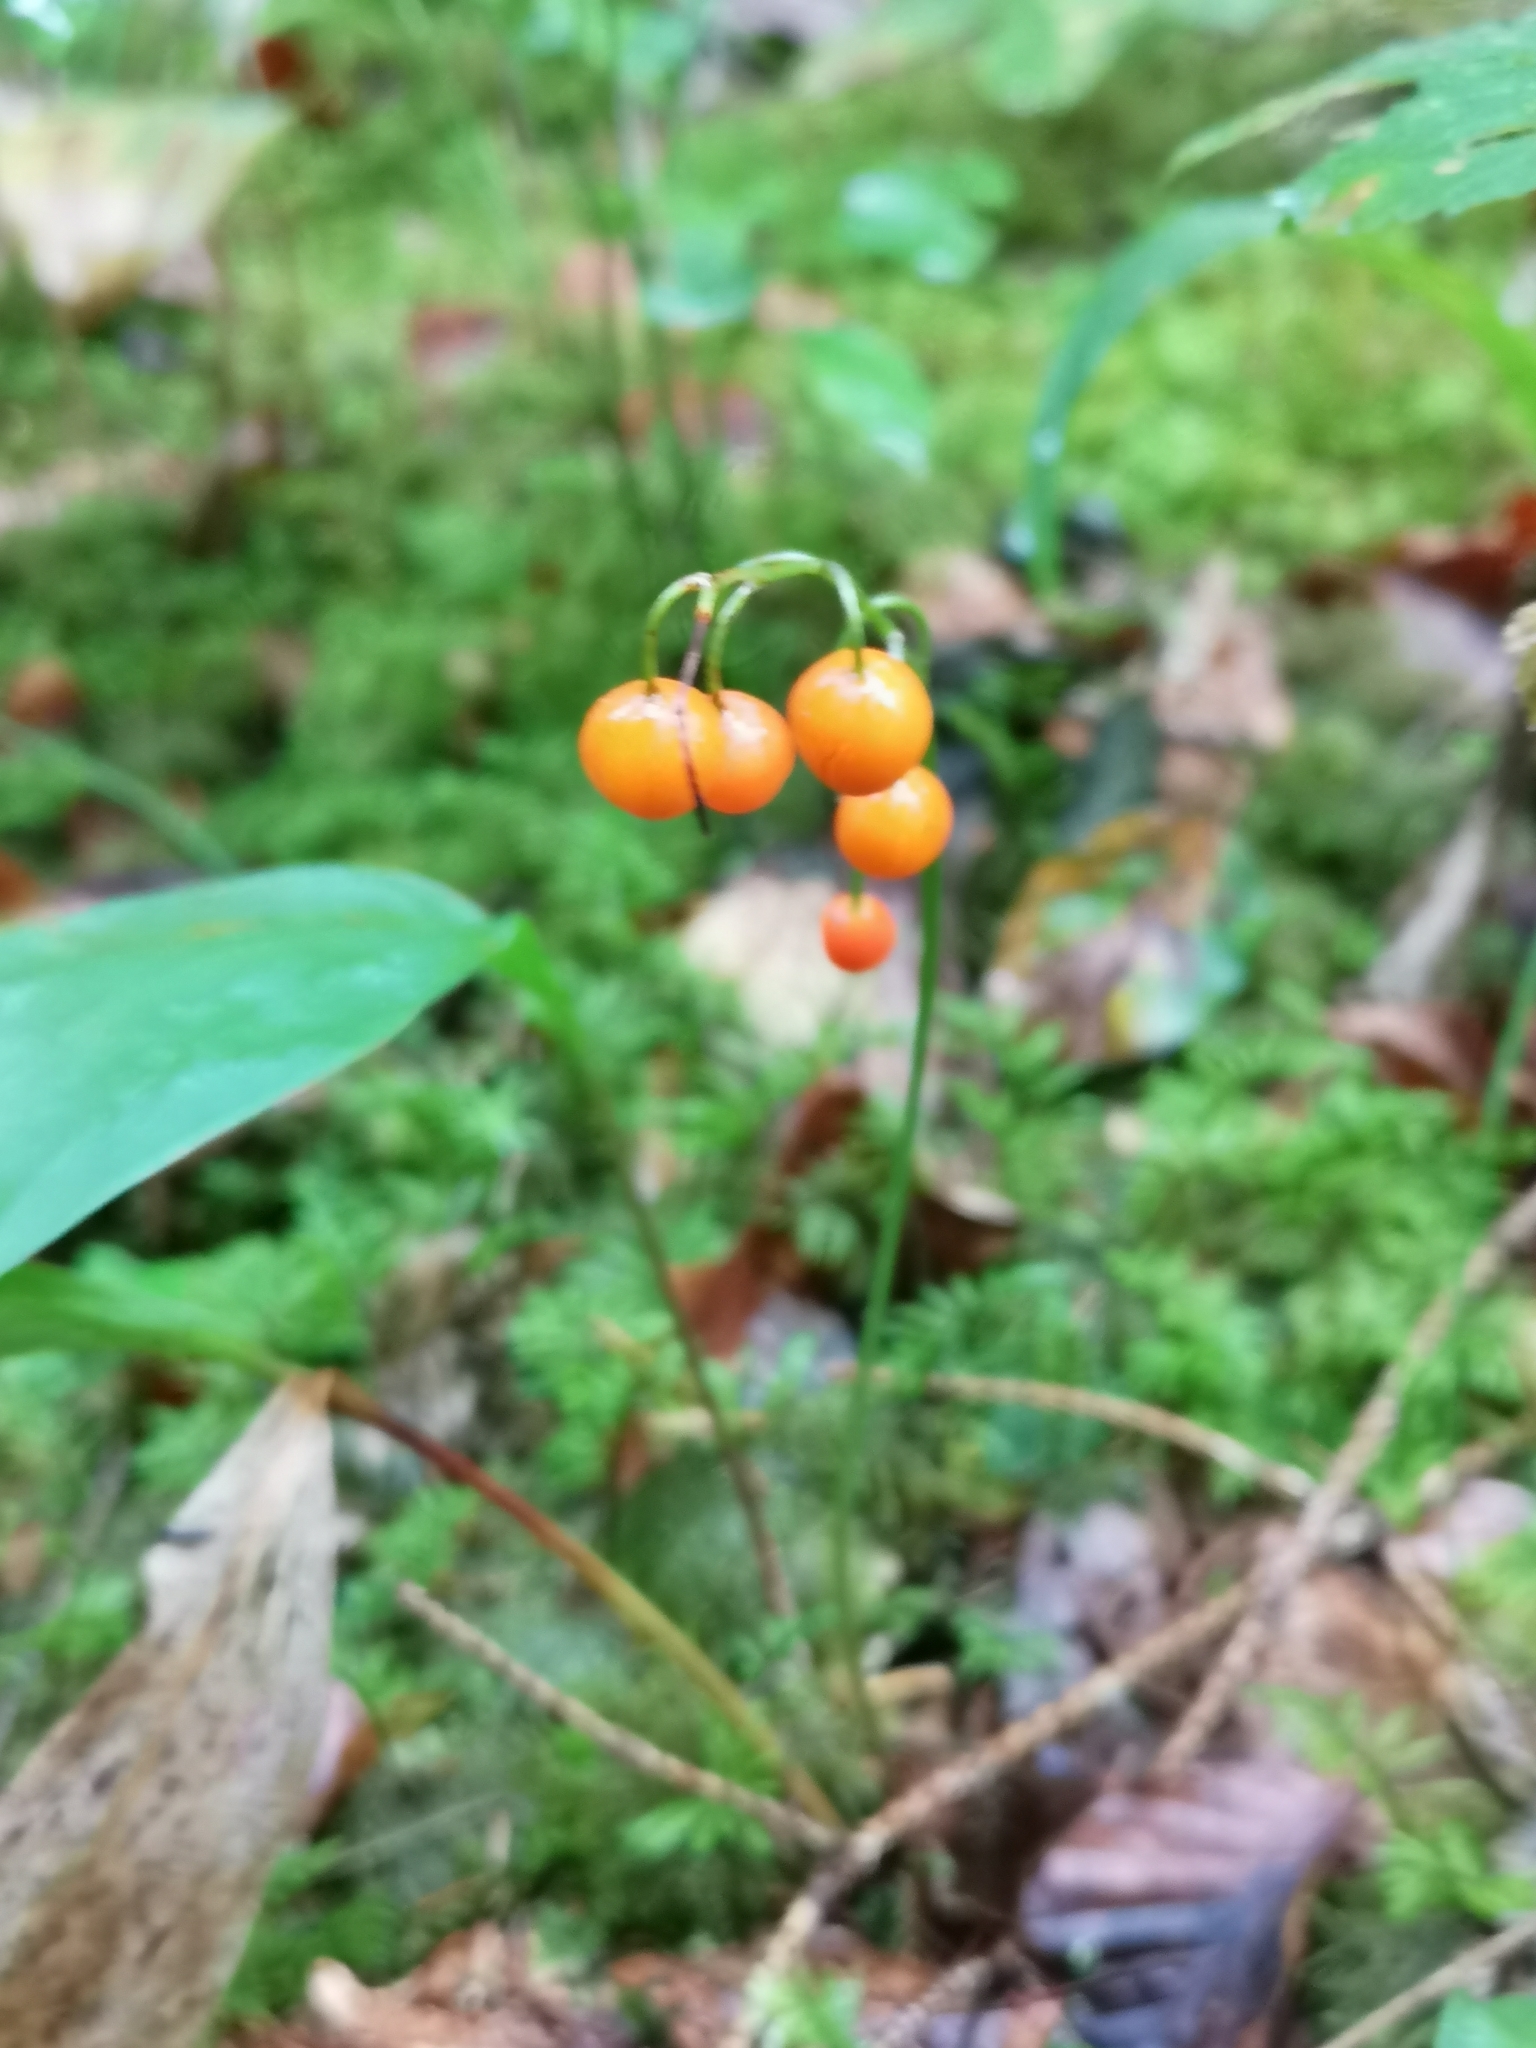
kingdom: Plantae
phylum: Tracheophyta
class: Liliopsida
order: Asparagales
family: Asparagaceae
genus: Convallaria
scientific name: Convallaria majalis
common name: Lily-of-the-valley
